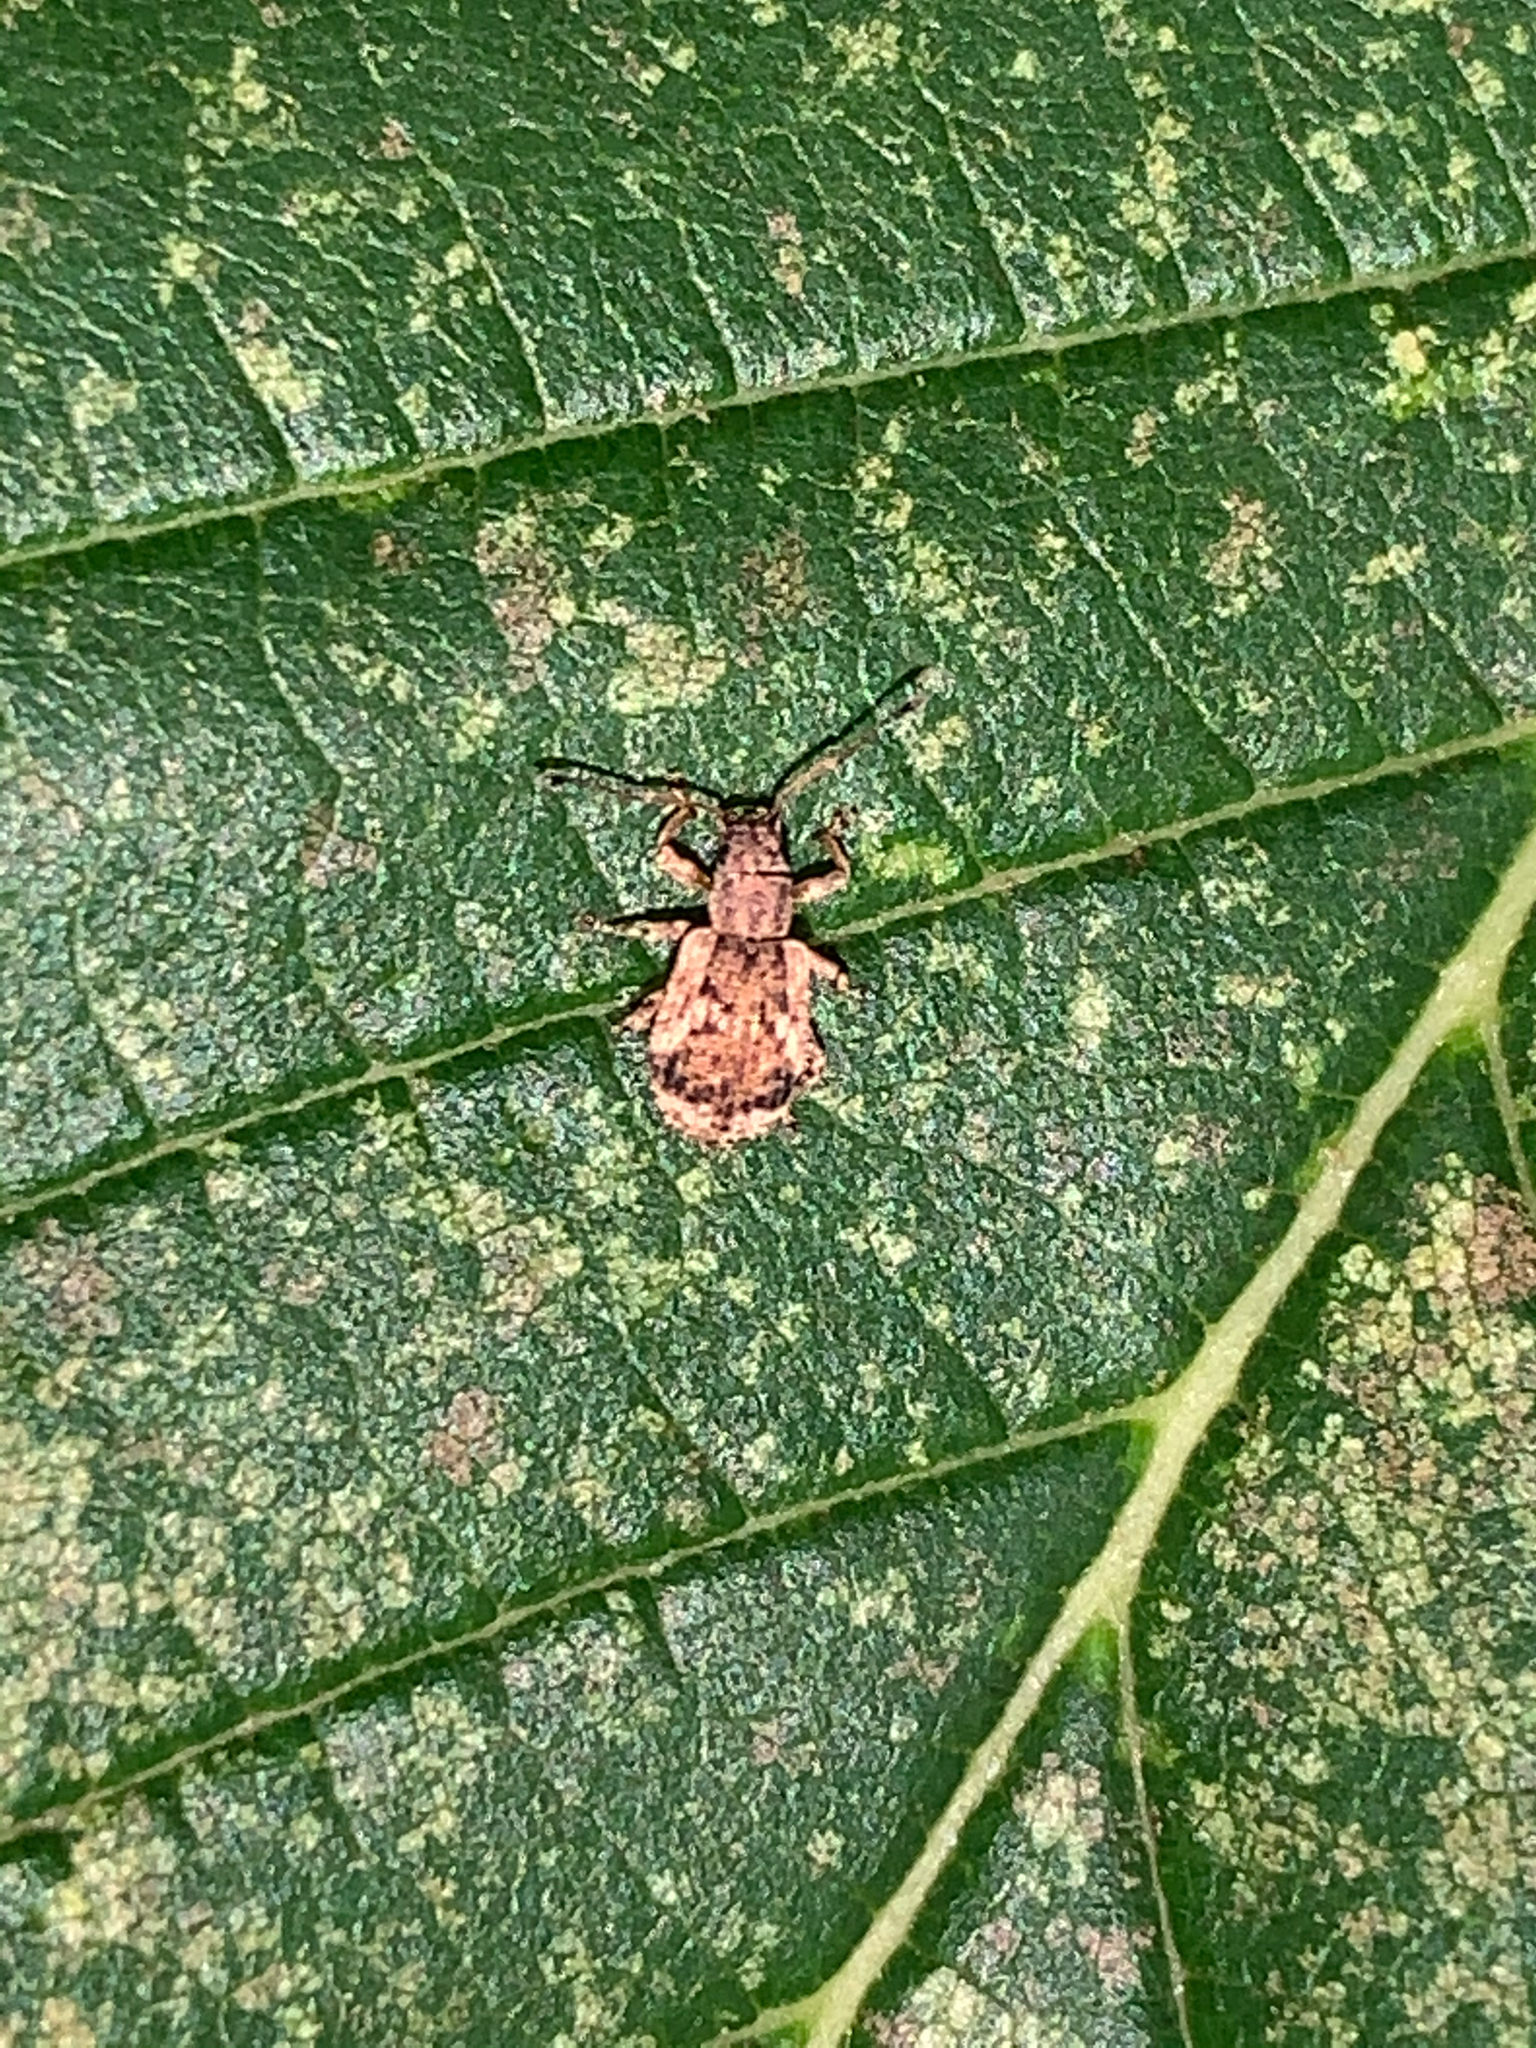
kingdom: Animalia
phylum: Arthropoda
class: Insecta
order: Coleoptera
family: Curculionidae
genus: Pseudoedophrys
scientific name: Pseudoedophrys hilleri
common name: Weevil
